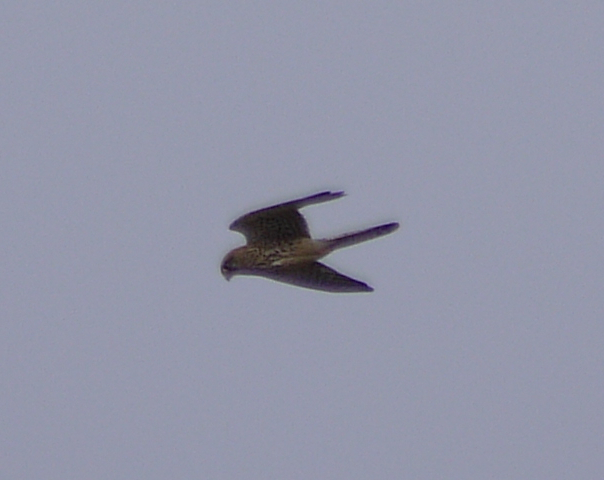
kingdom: Animalia
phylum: Chordata
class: Aves
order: Falconiformes
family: Falconidae
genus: Falco
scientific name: Falco tinnunculus
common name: Common kestrel
